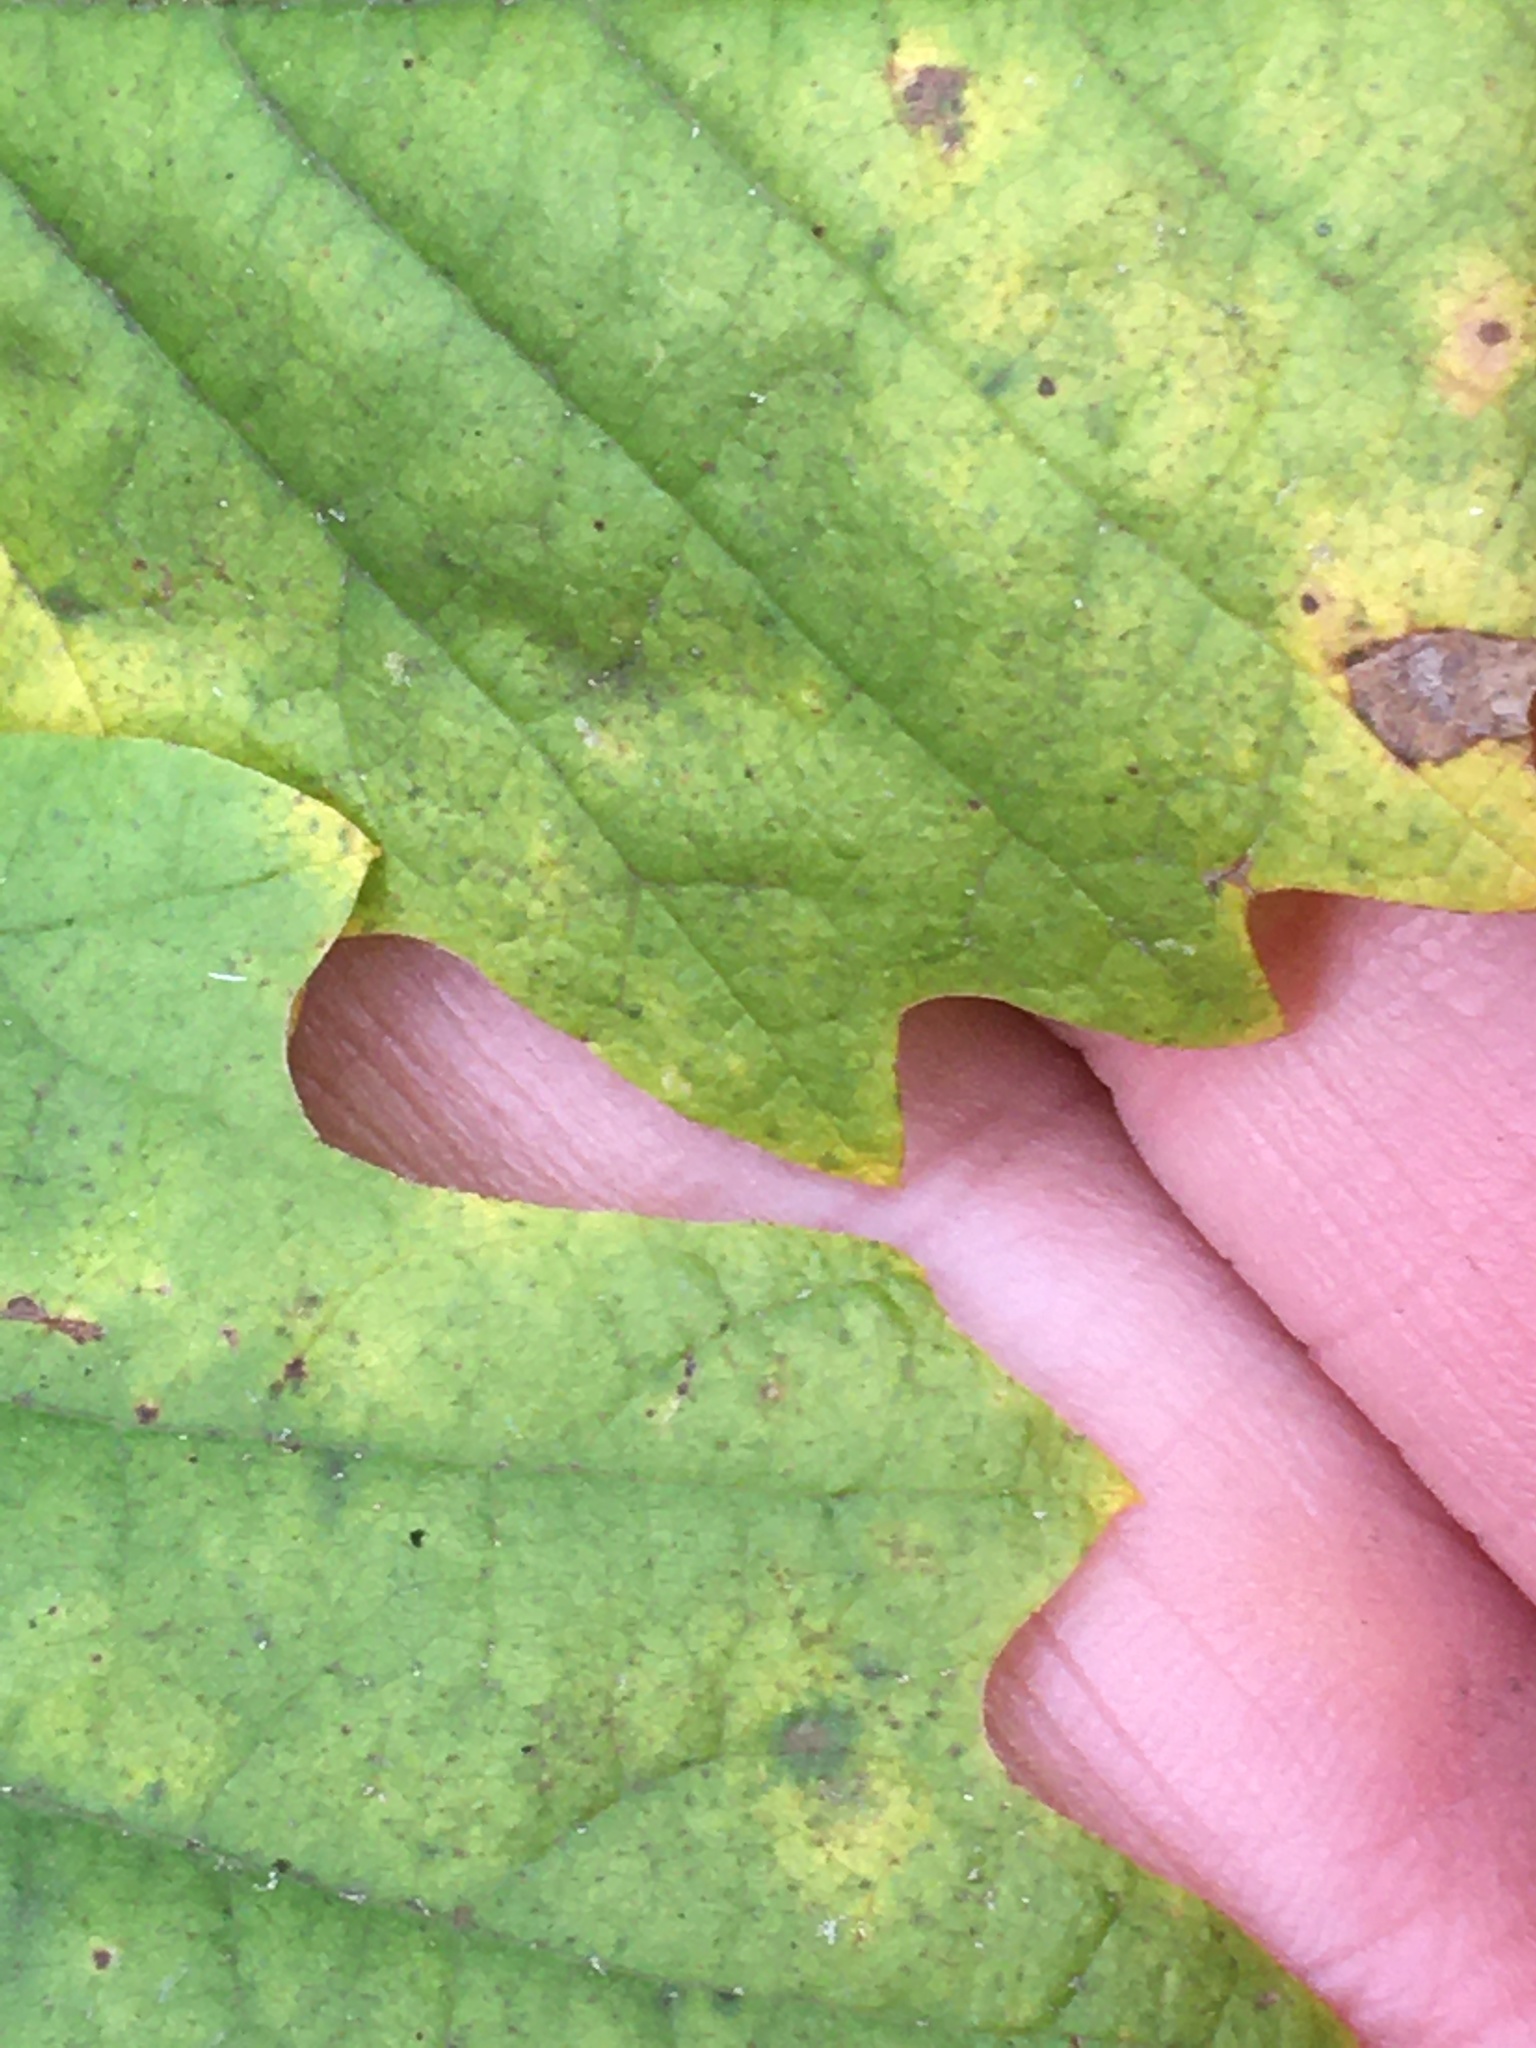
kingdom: Plantae
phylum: Tracheophyta
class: Magnoliopsida
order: Fagales
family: Fagaceae
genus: Quercus
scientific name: Quercus muehlenbergii
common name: Chinkapin oak
